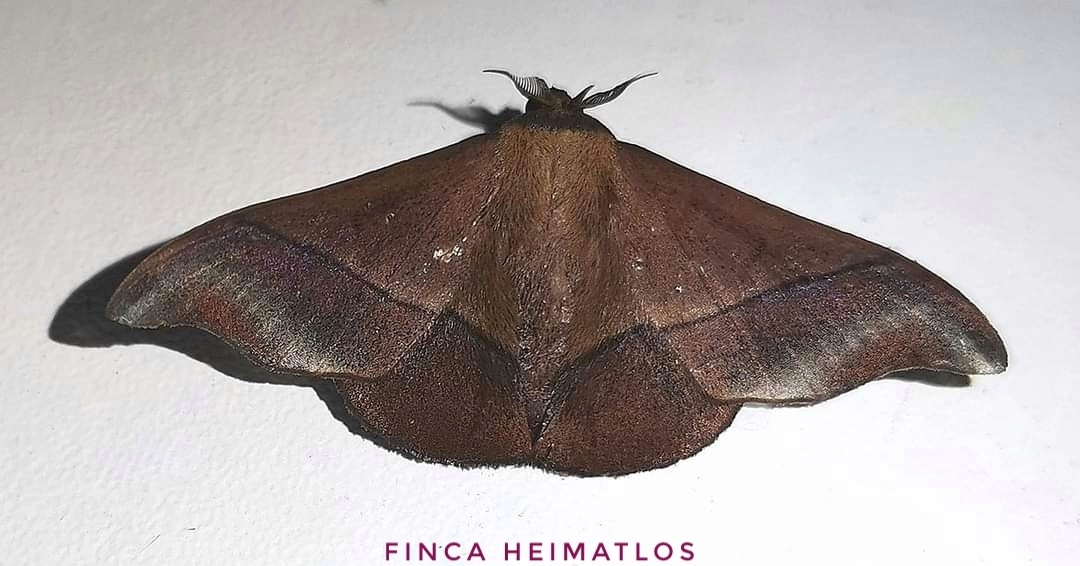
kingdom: Animalia
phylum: Arthropoda
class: Insecta
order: Lepidoptera
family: Mimallonidae
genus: Alheita
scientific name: Alheita subnotata
